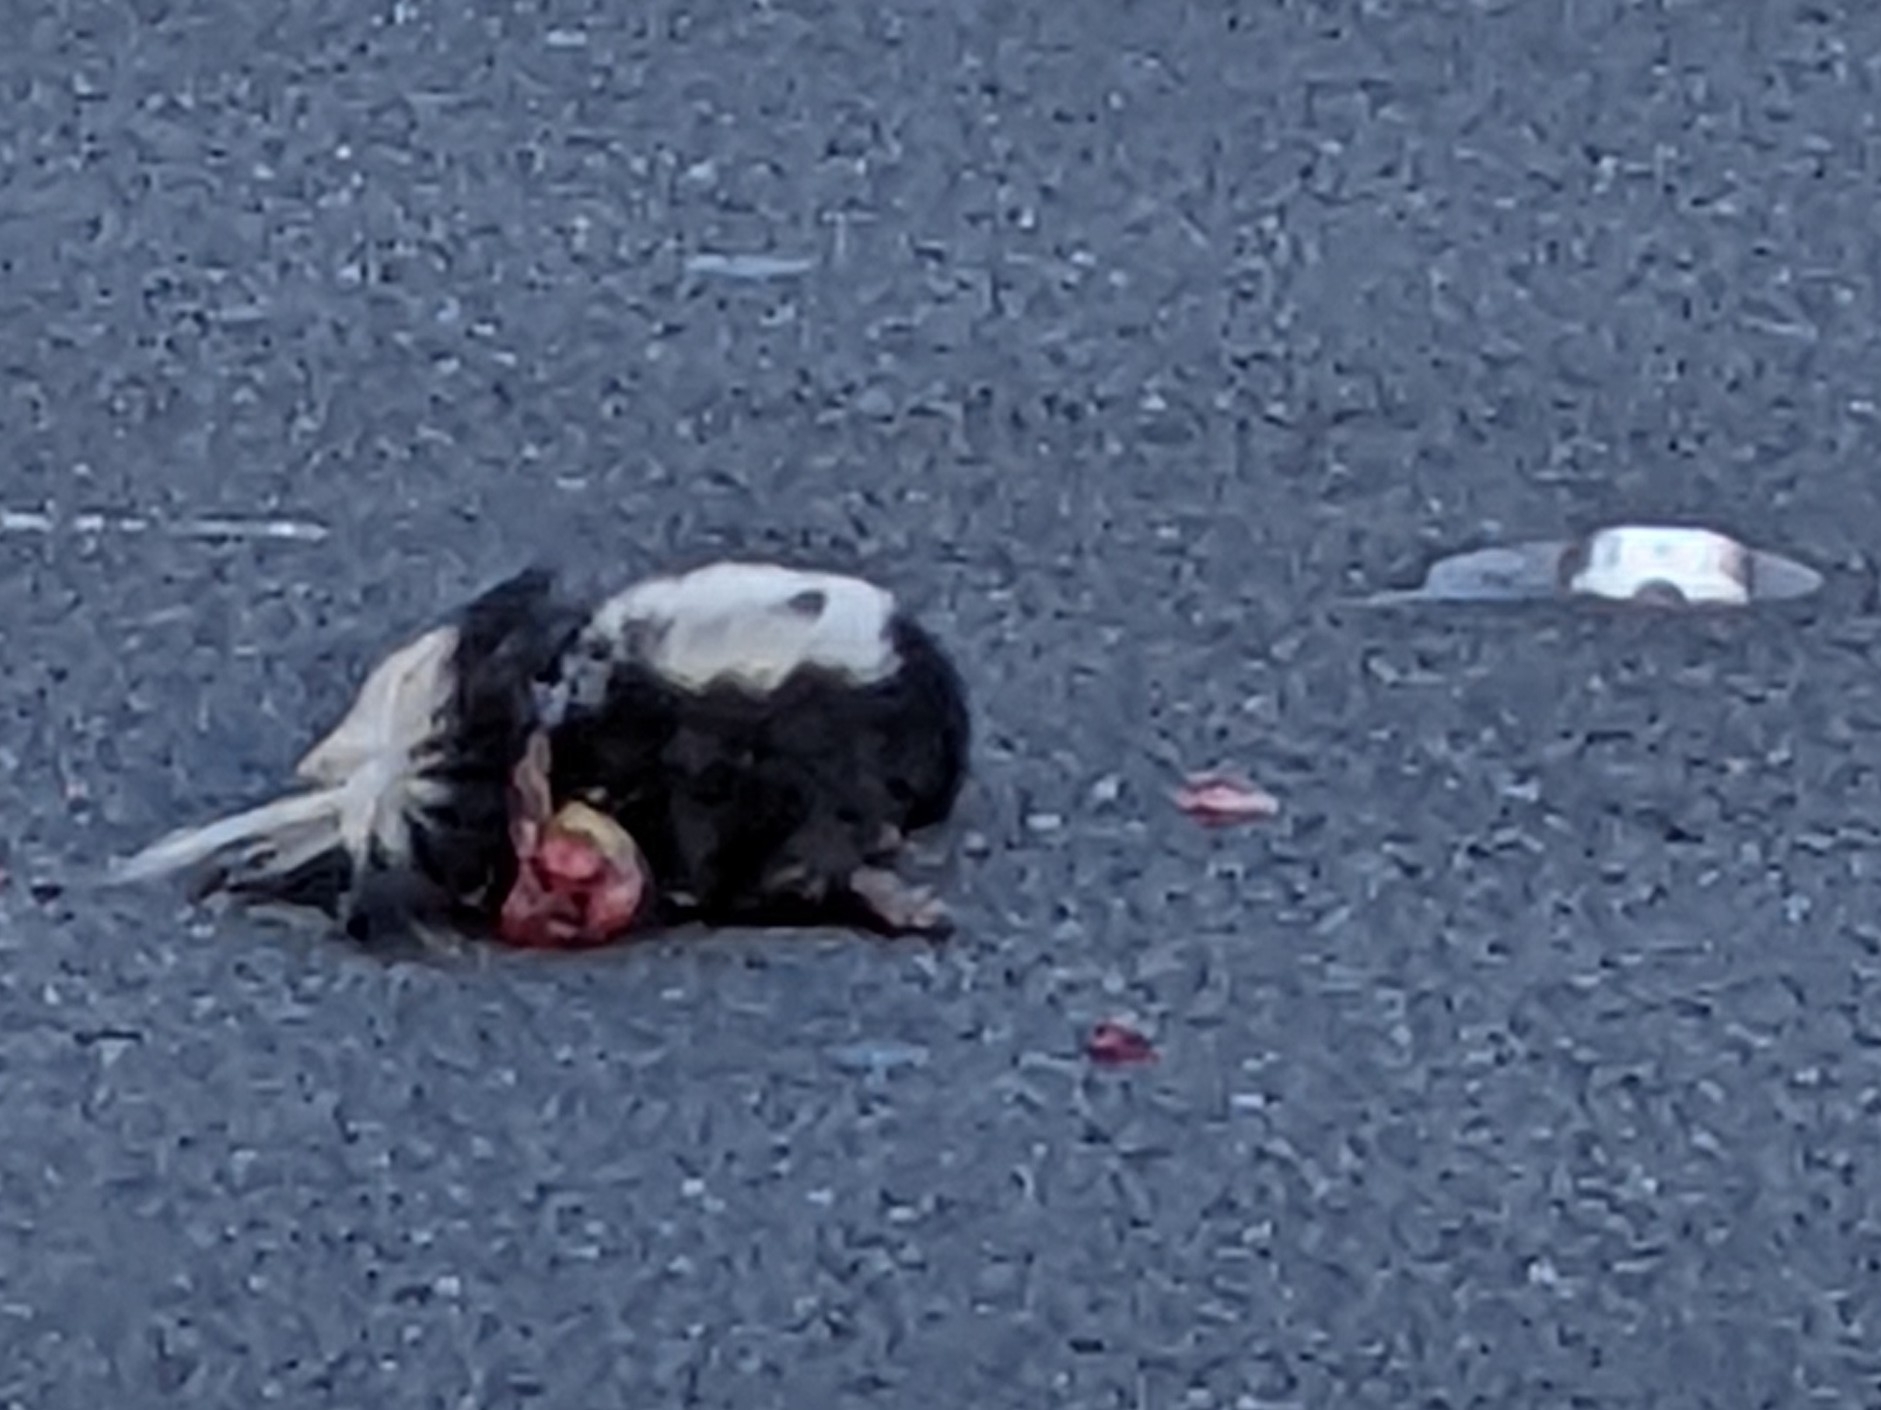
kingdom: Animalia
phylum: Chordata
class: Mammalia
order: Carnivora
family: Mephitidae
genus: Mephitis
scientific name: Mephitis mephitis
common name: Striped skunk
